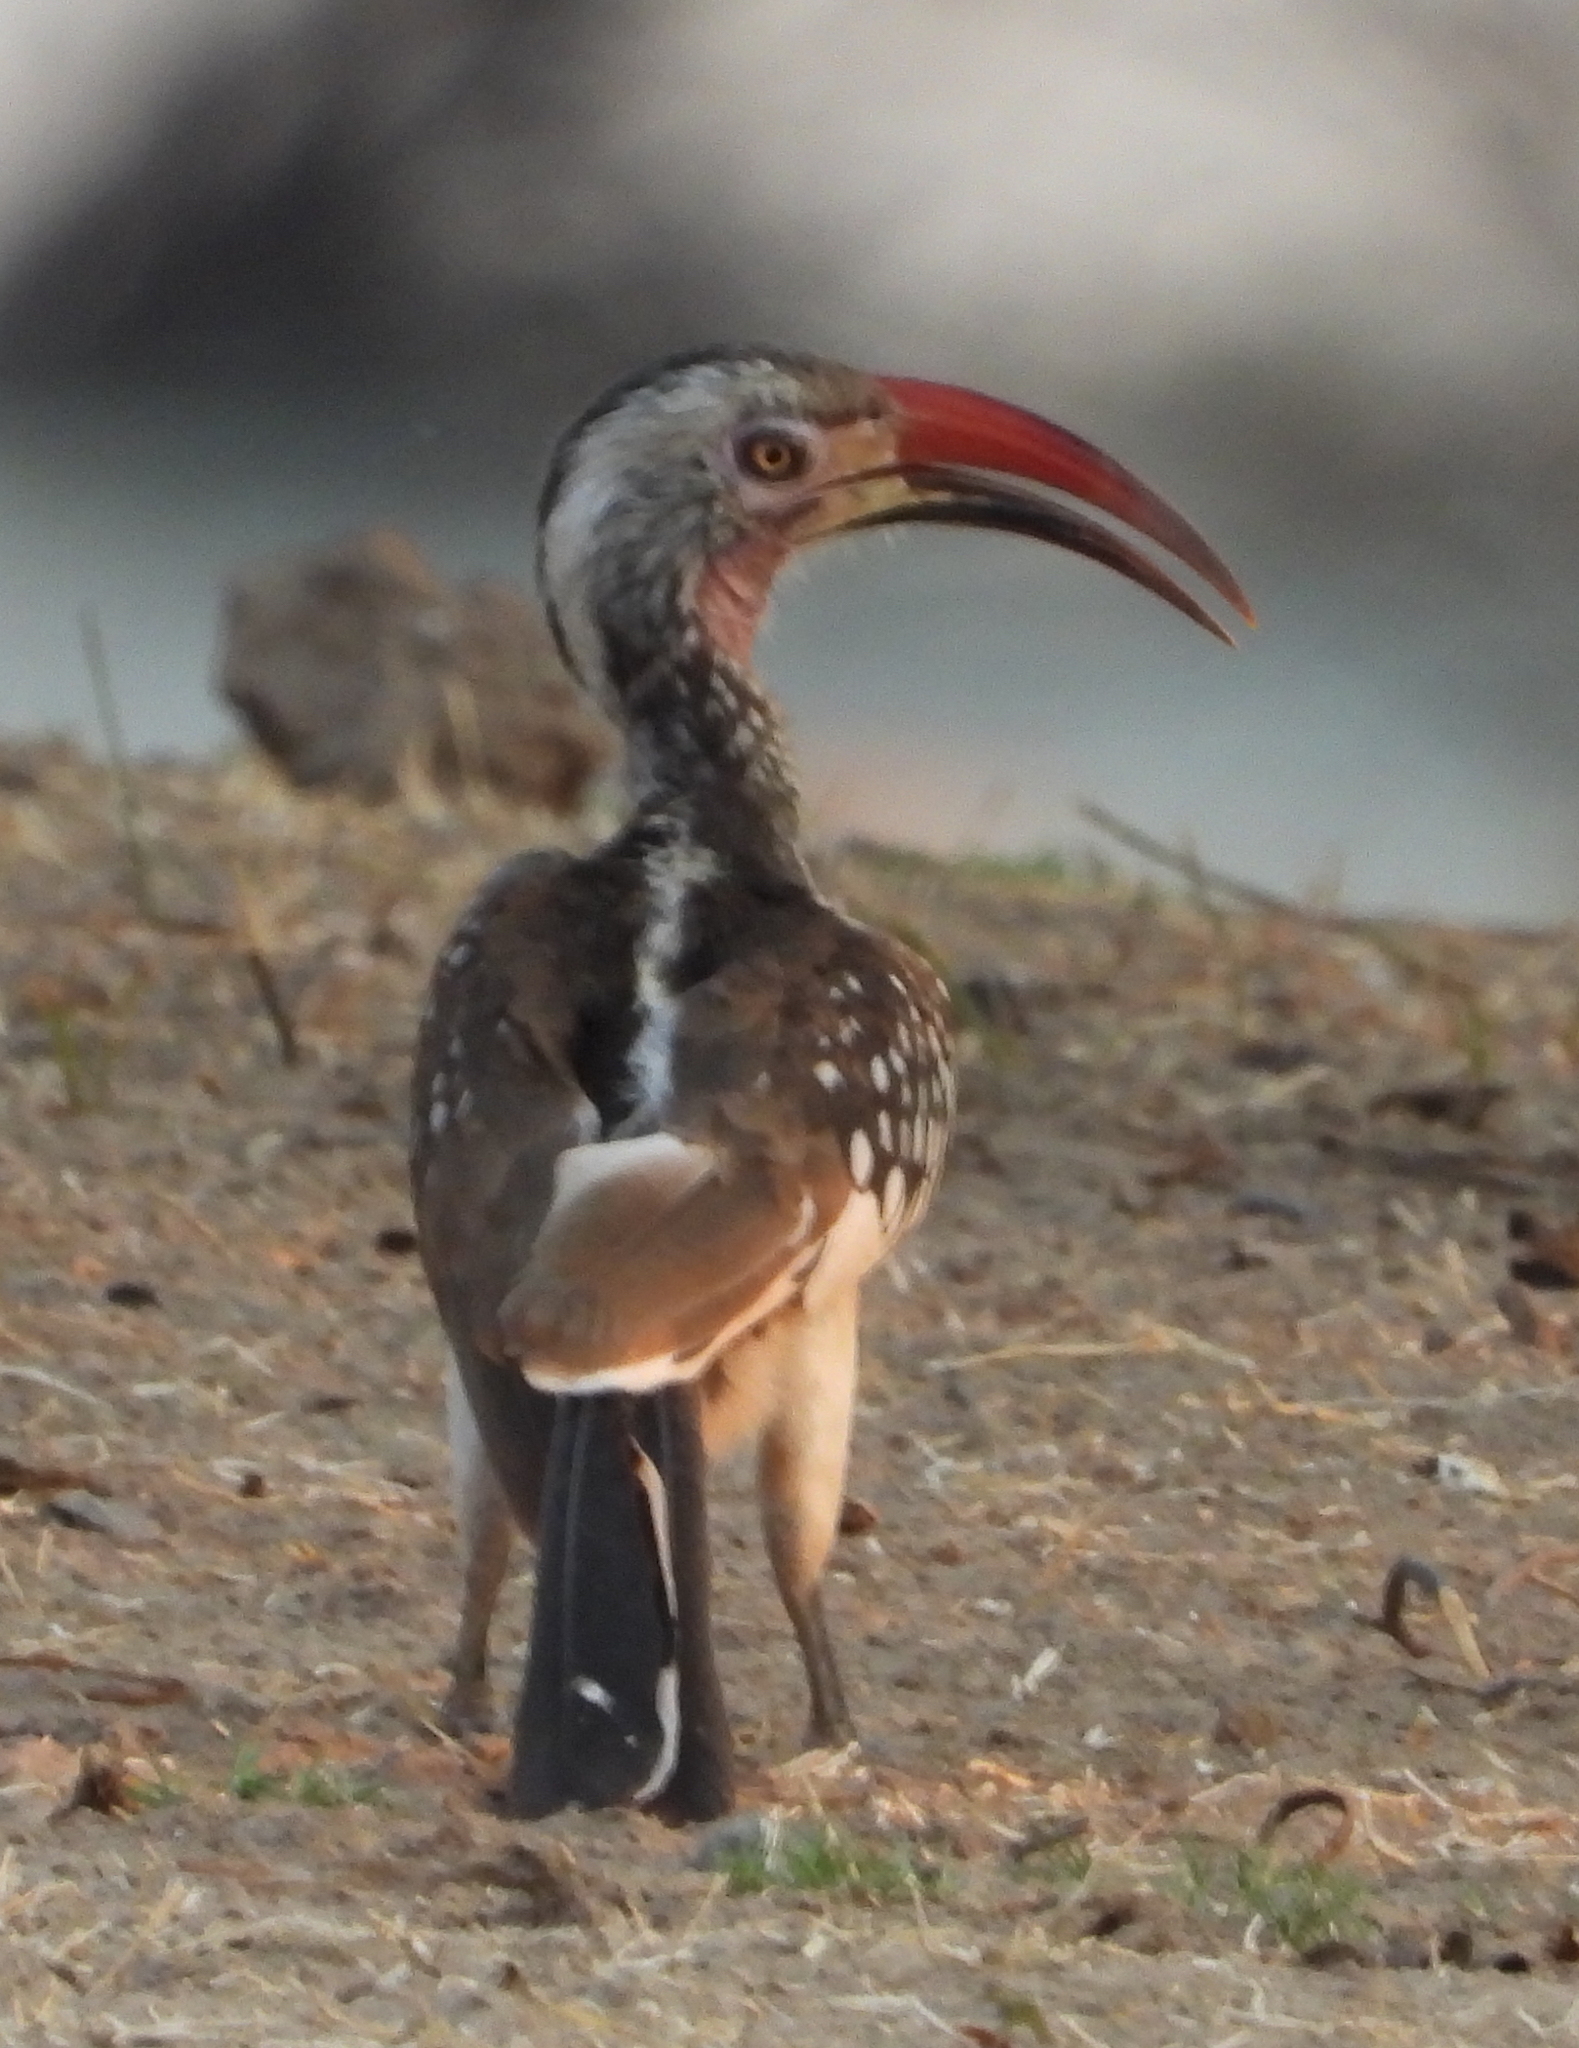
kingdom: Animalia
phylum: Chordata
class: Aves
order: Bucerotiformes
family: Bucerotidae
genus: Tockus
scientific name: Tockus rufirostris
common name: Southern red-billed hornbill
